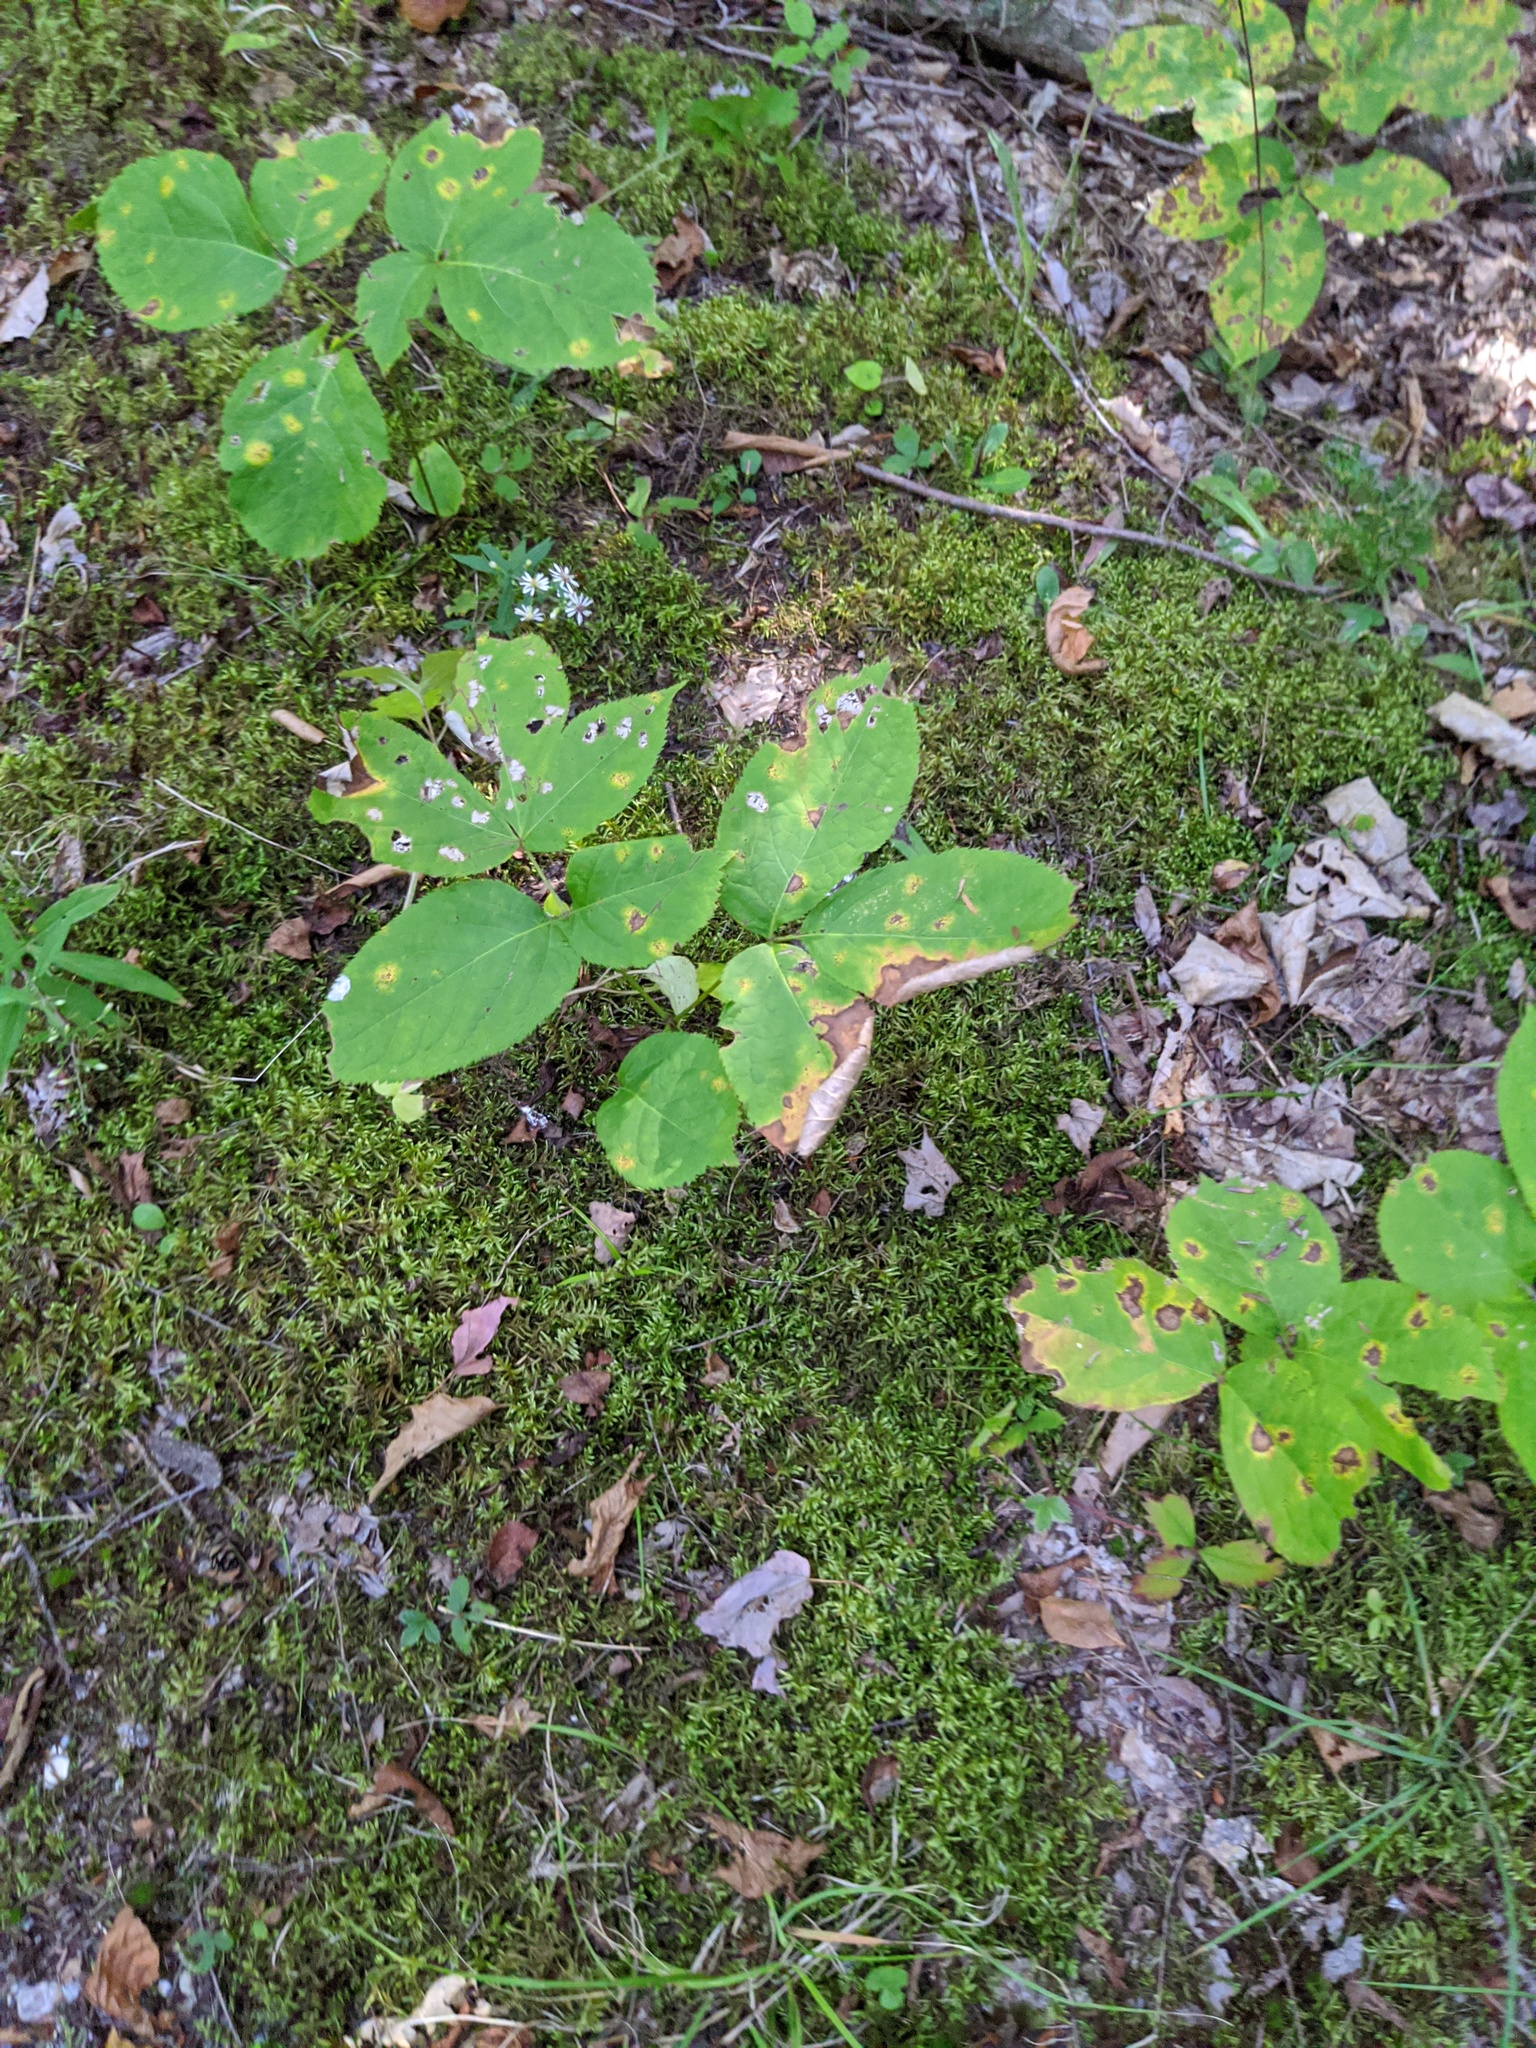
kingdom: Plantae
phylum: Tracheophyta
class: Magnoliopsida
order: Apiales
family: Araliaceae
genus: Aralia
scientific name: Aralia nudicaulis
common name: Wild sarsaparilla
